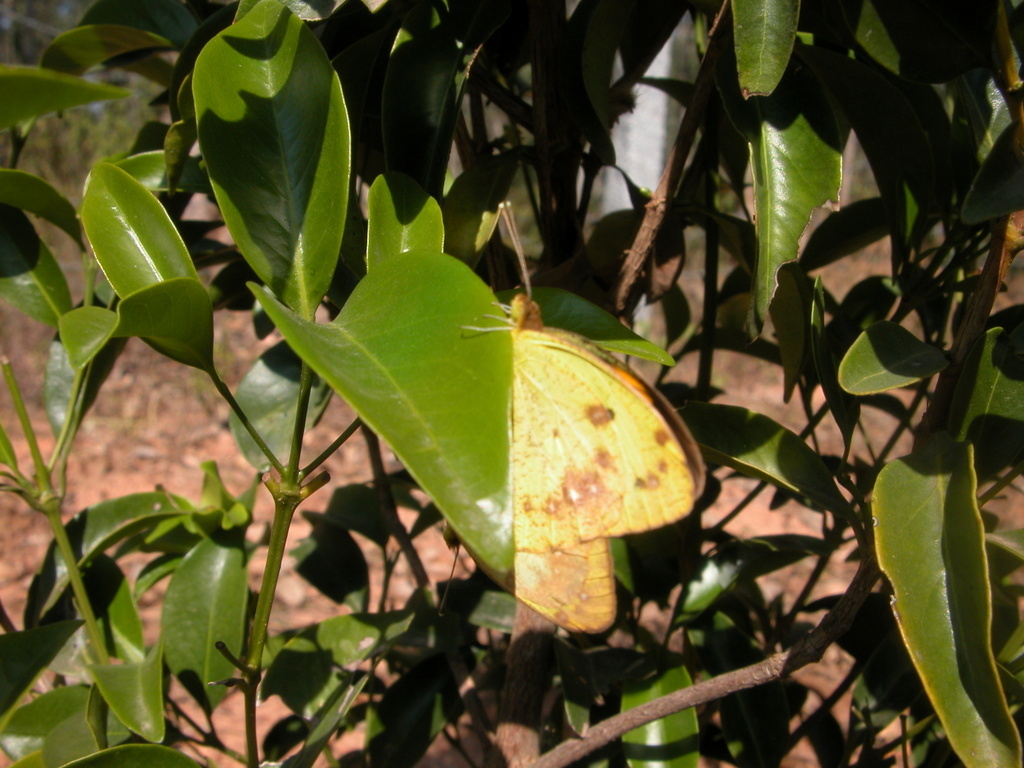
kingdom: Animalia
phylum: Arthropoda
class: Insecta
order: Lepidoptera
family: Pieridae
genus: Ixias
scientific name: Ixias pyrene
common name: Yellow orange tip
